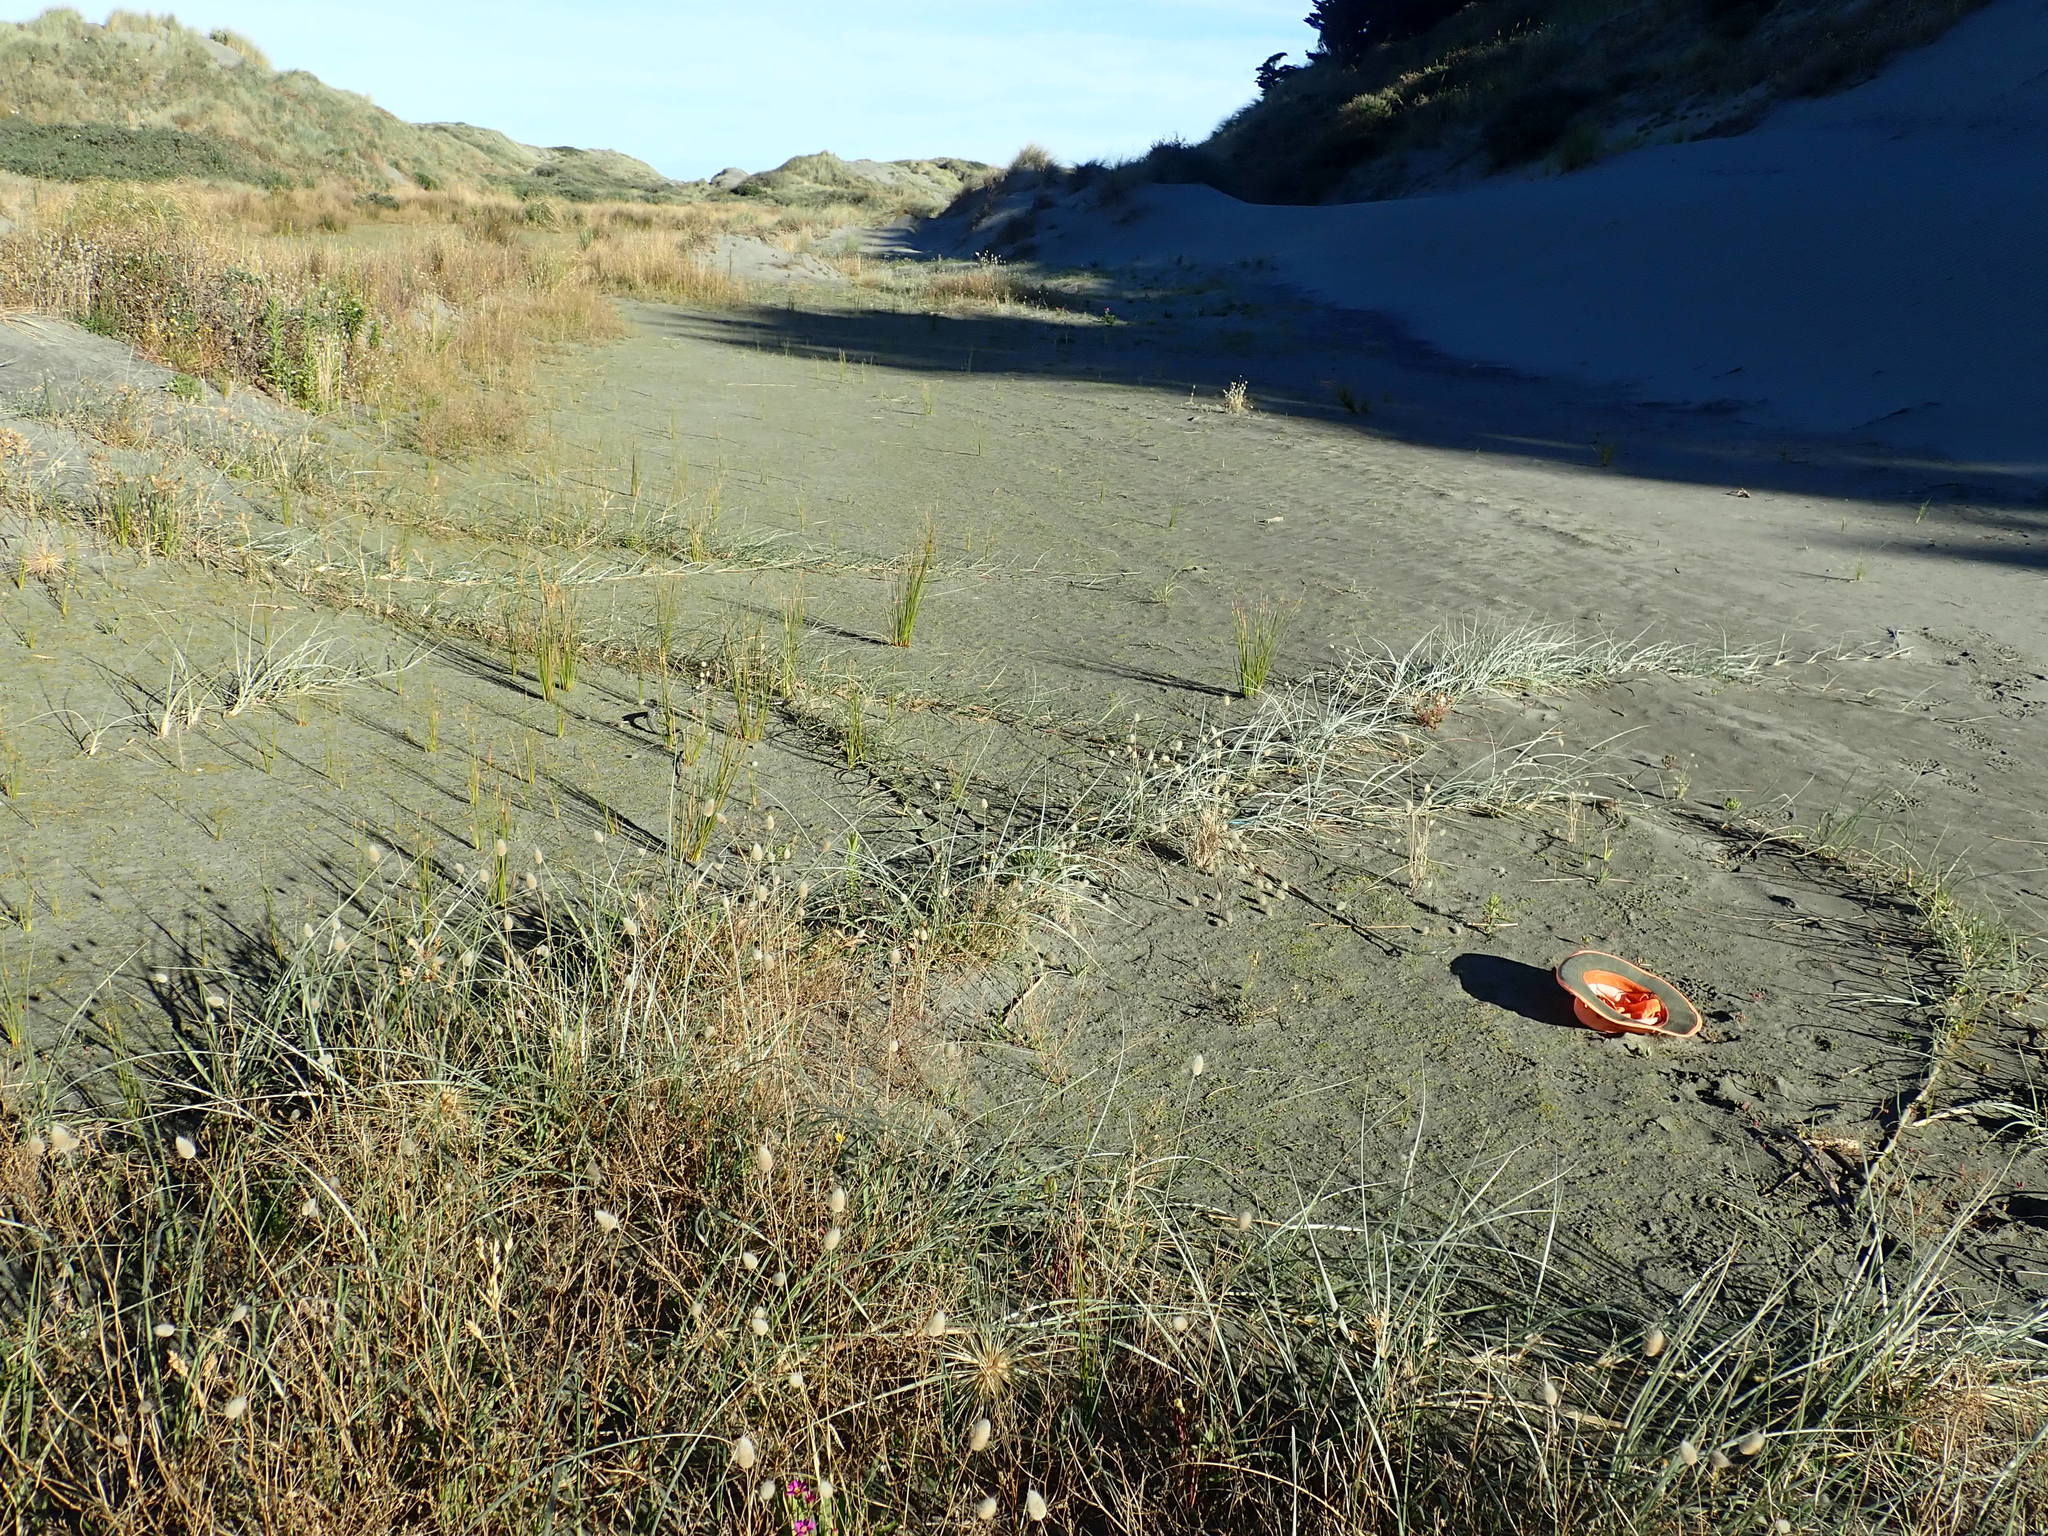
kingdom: Plantae
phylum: Tracheophyta
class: Magnoliopsida
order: Asterales
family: Goodeniaceae
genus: Goodenia
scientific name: Goodenia heenanii
